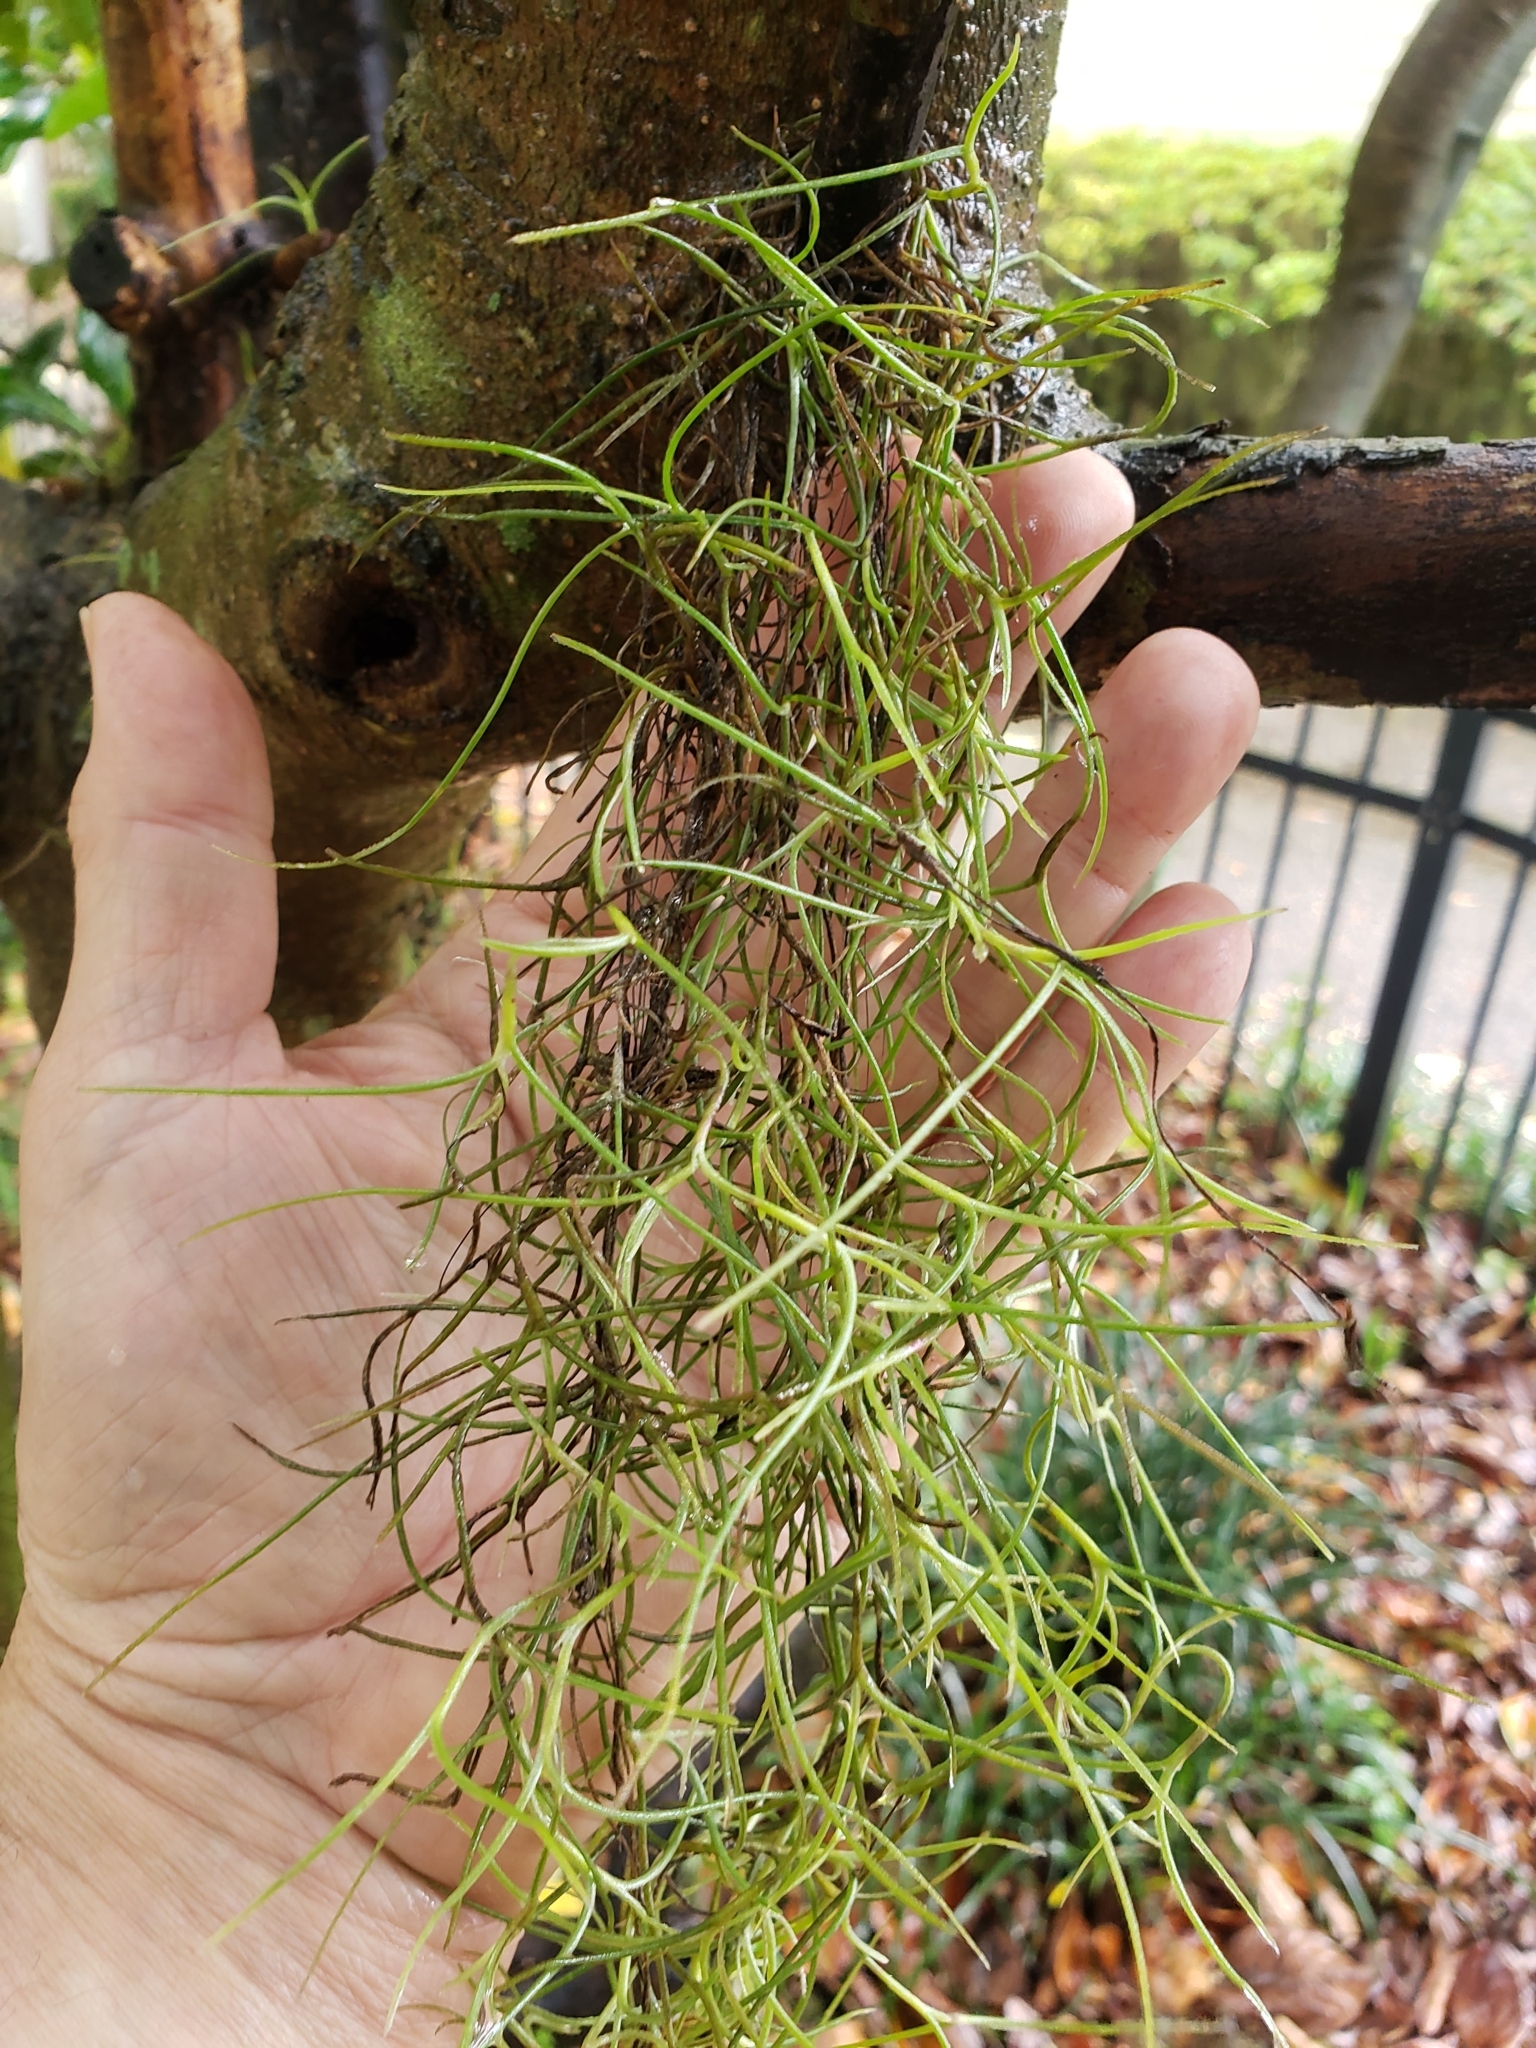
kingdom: Plantae
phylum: Tracheophyta
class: Liliopsida
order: Poales
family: Bromeliaceae
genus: Tillandsia
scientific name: Tillandsia usneoides
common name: Spanish moss
